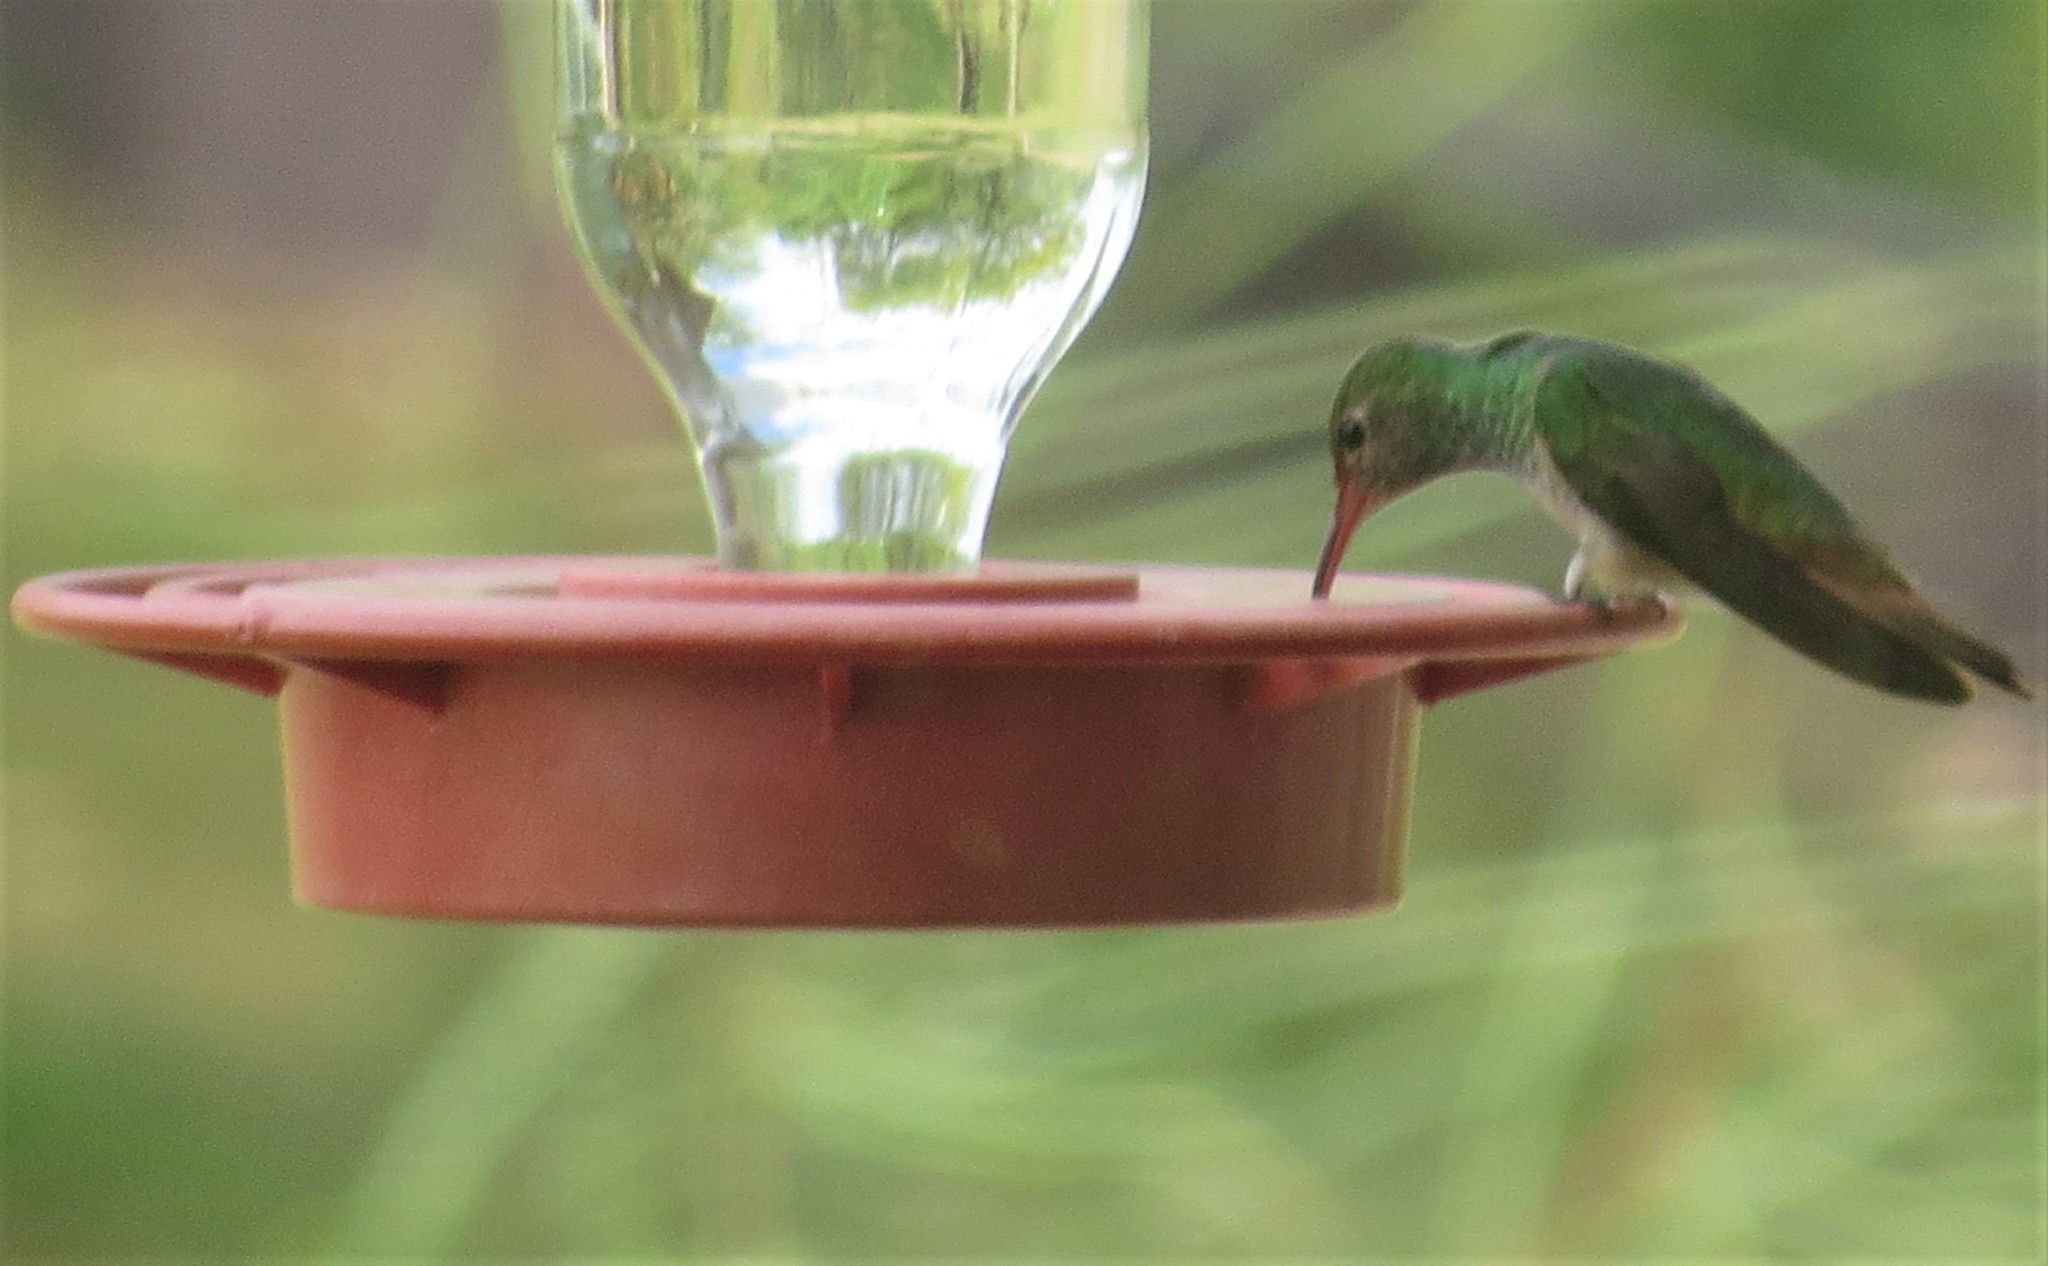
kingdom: Animalia
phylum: Chordata
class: Aves
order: Apodiformes
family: Trochilidae
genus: Amazilia
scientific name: Amazilia yucatanensis
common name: Buff-bellied hummingbird
